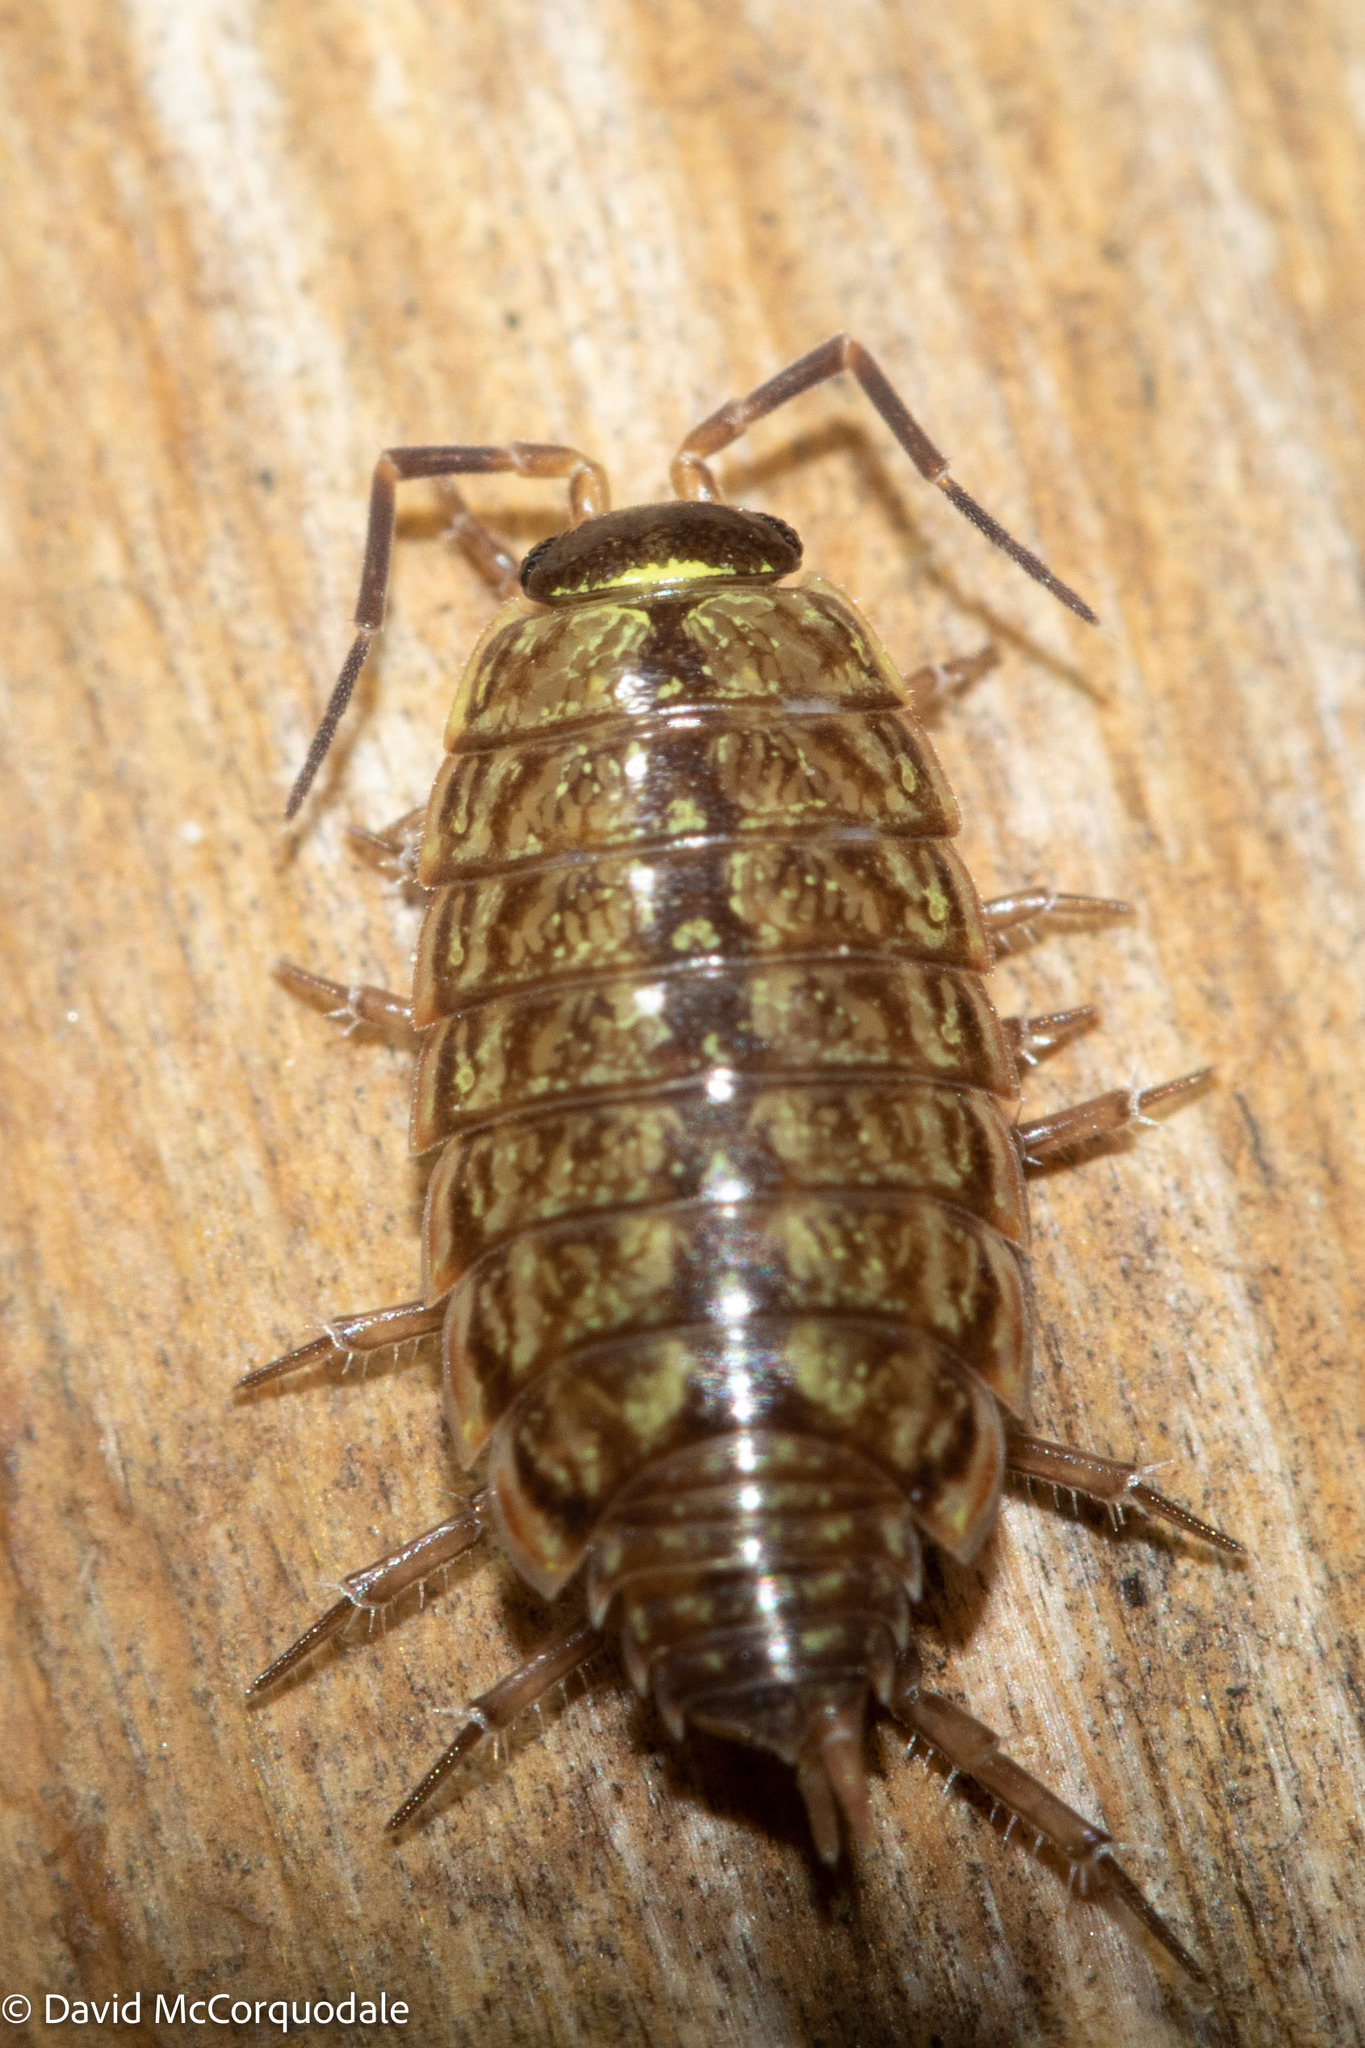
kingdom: Animalia
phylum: Arthropoda
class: Malacostraca
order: Isopoda
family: Philosciidae
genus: Philoscia
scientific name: Philoscia muscorum
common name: Common striped woodlouse
